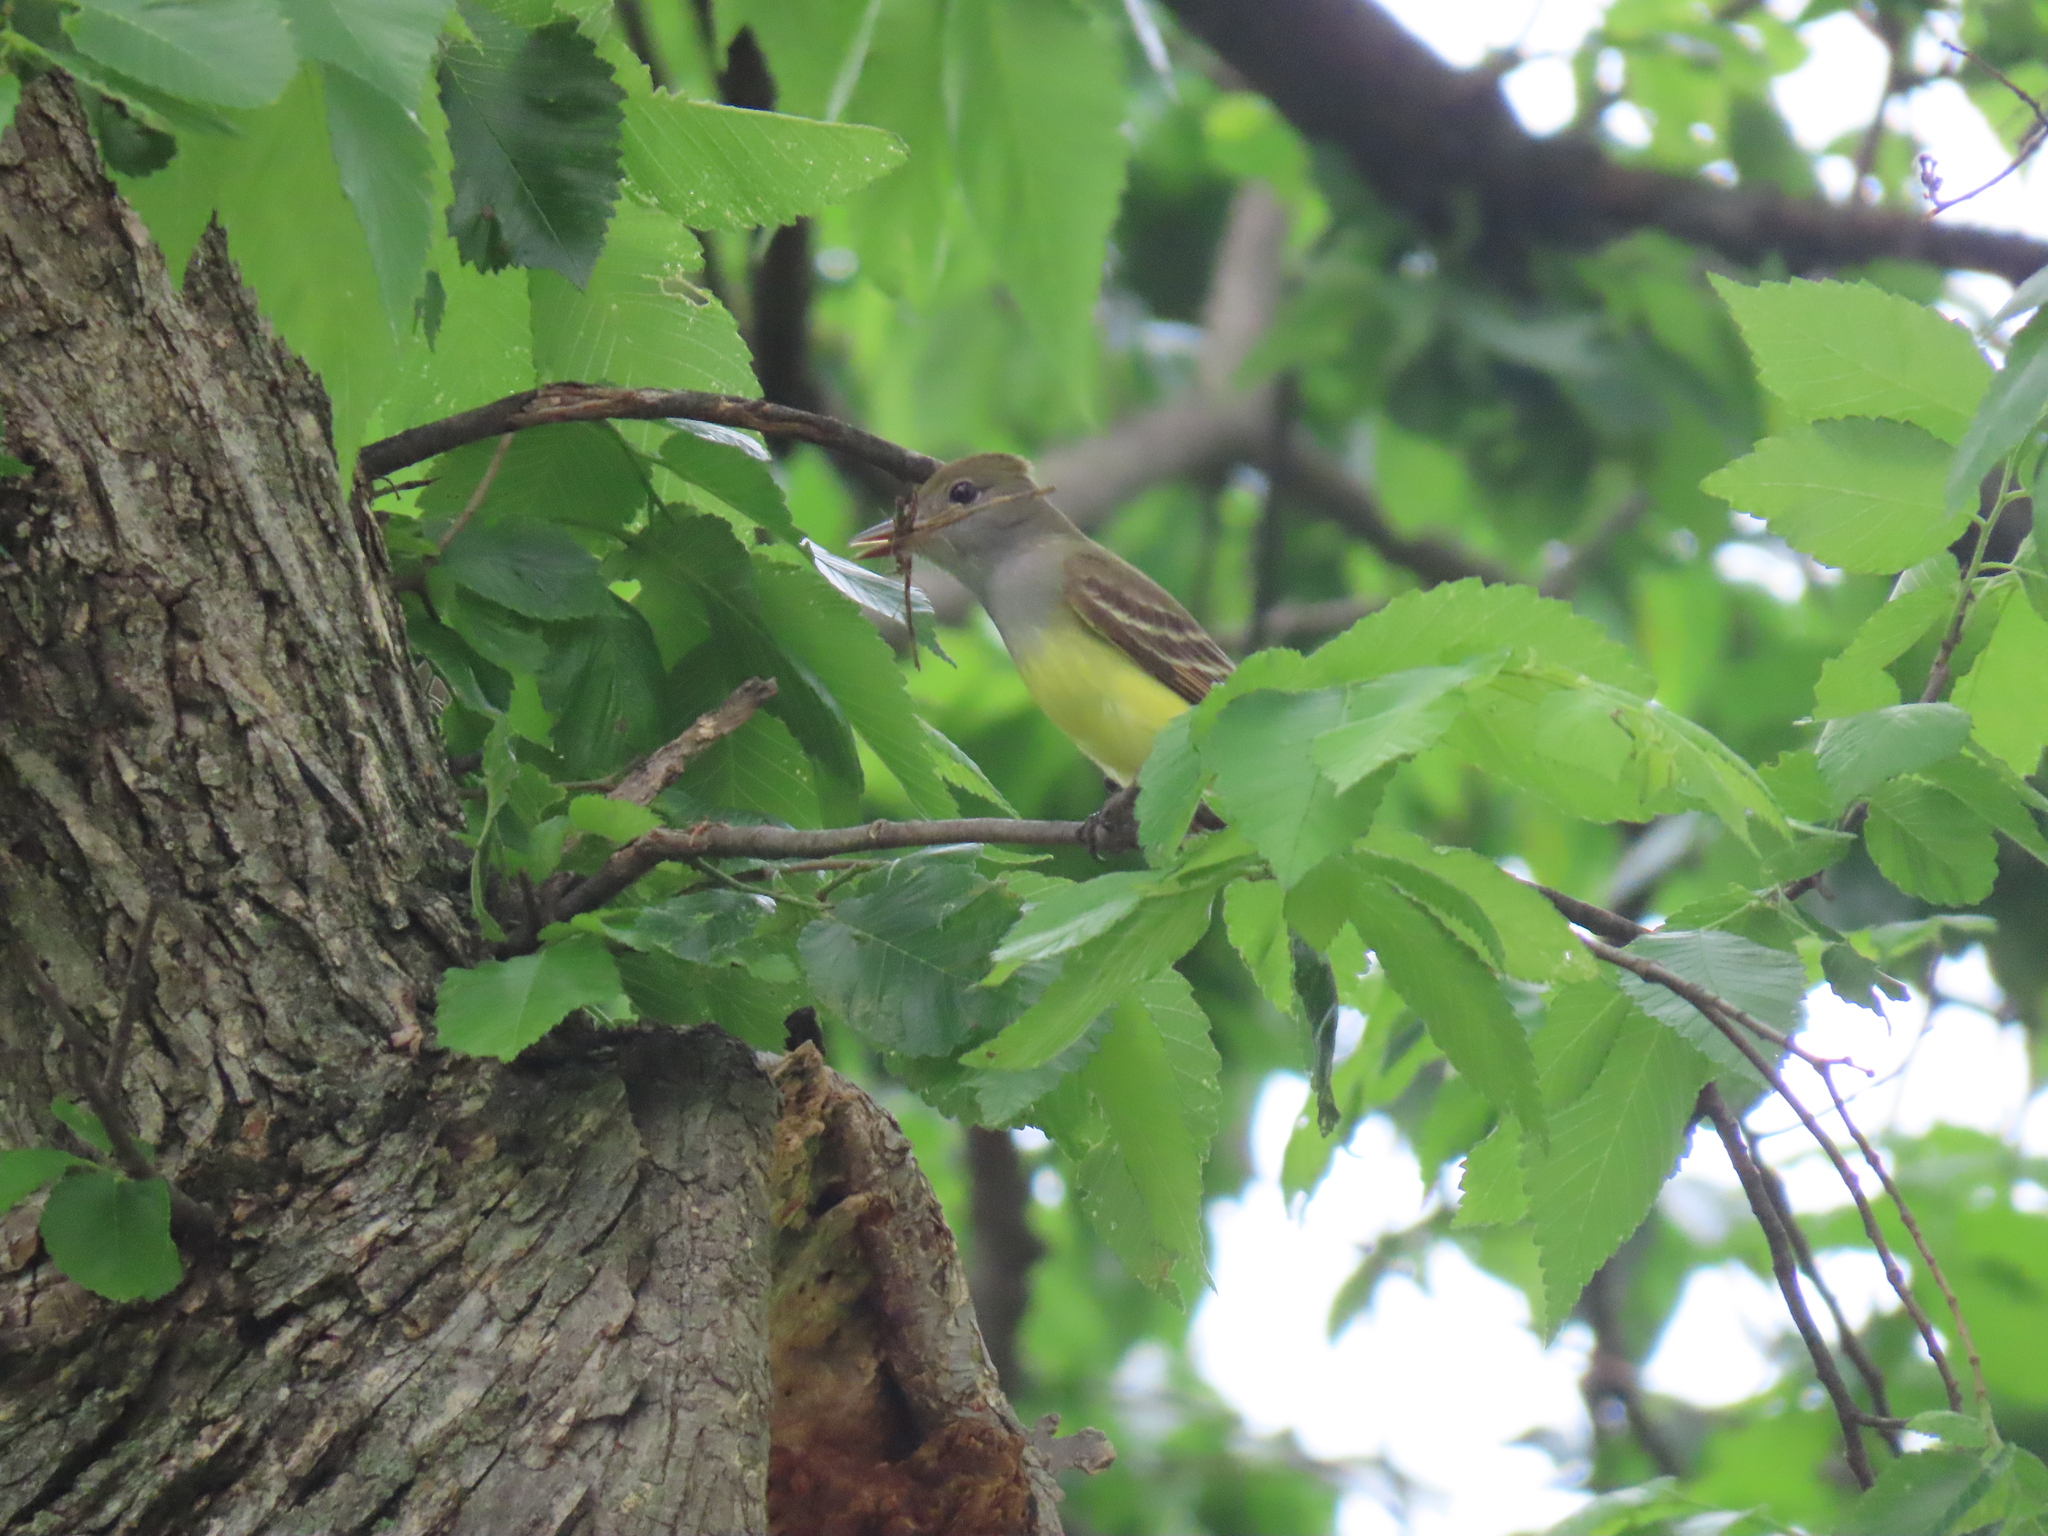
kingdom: Animalia
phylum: Chordata
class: Aves
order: Passeriformes
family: Tyrannidae
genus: Myiarchus
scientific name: Myiarchus crinitus
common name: Great crested flycatcher
